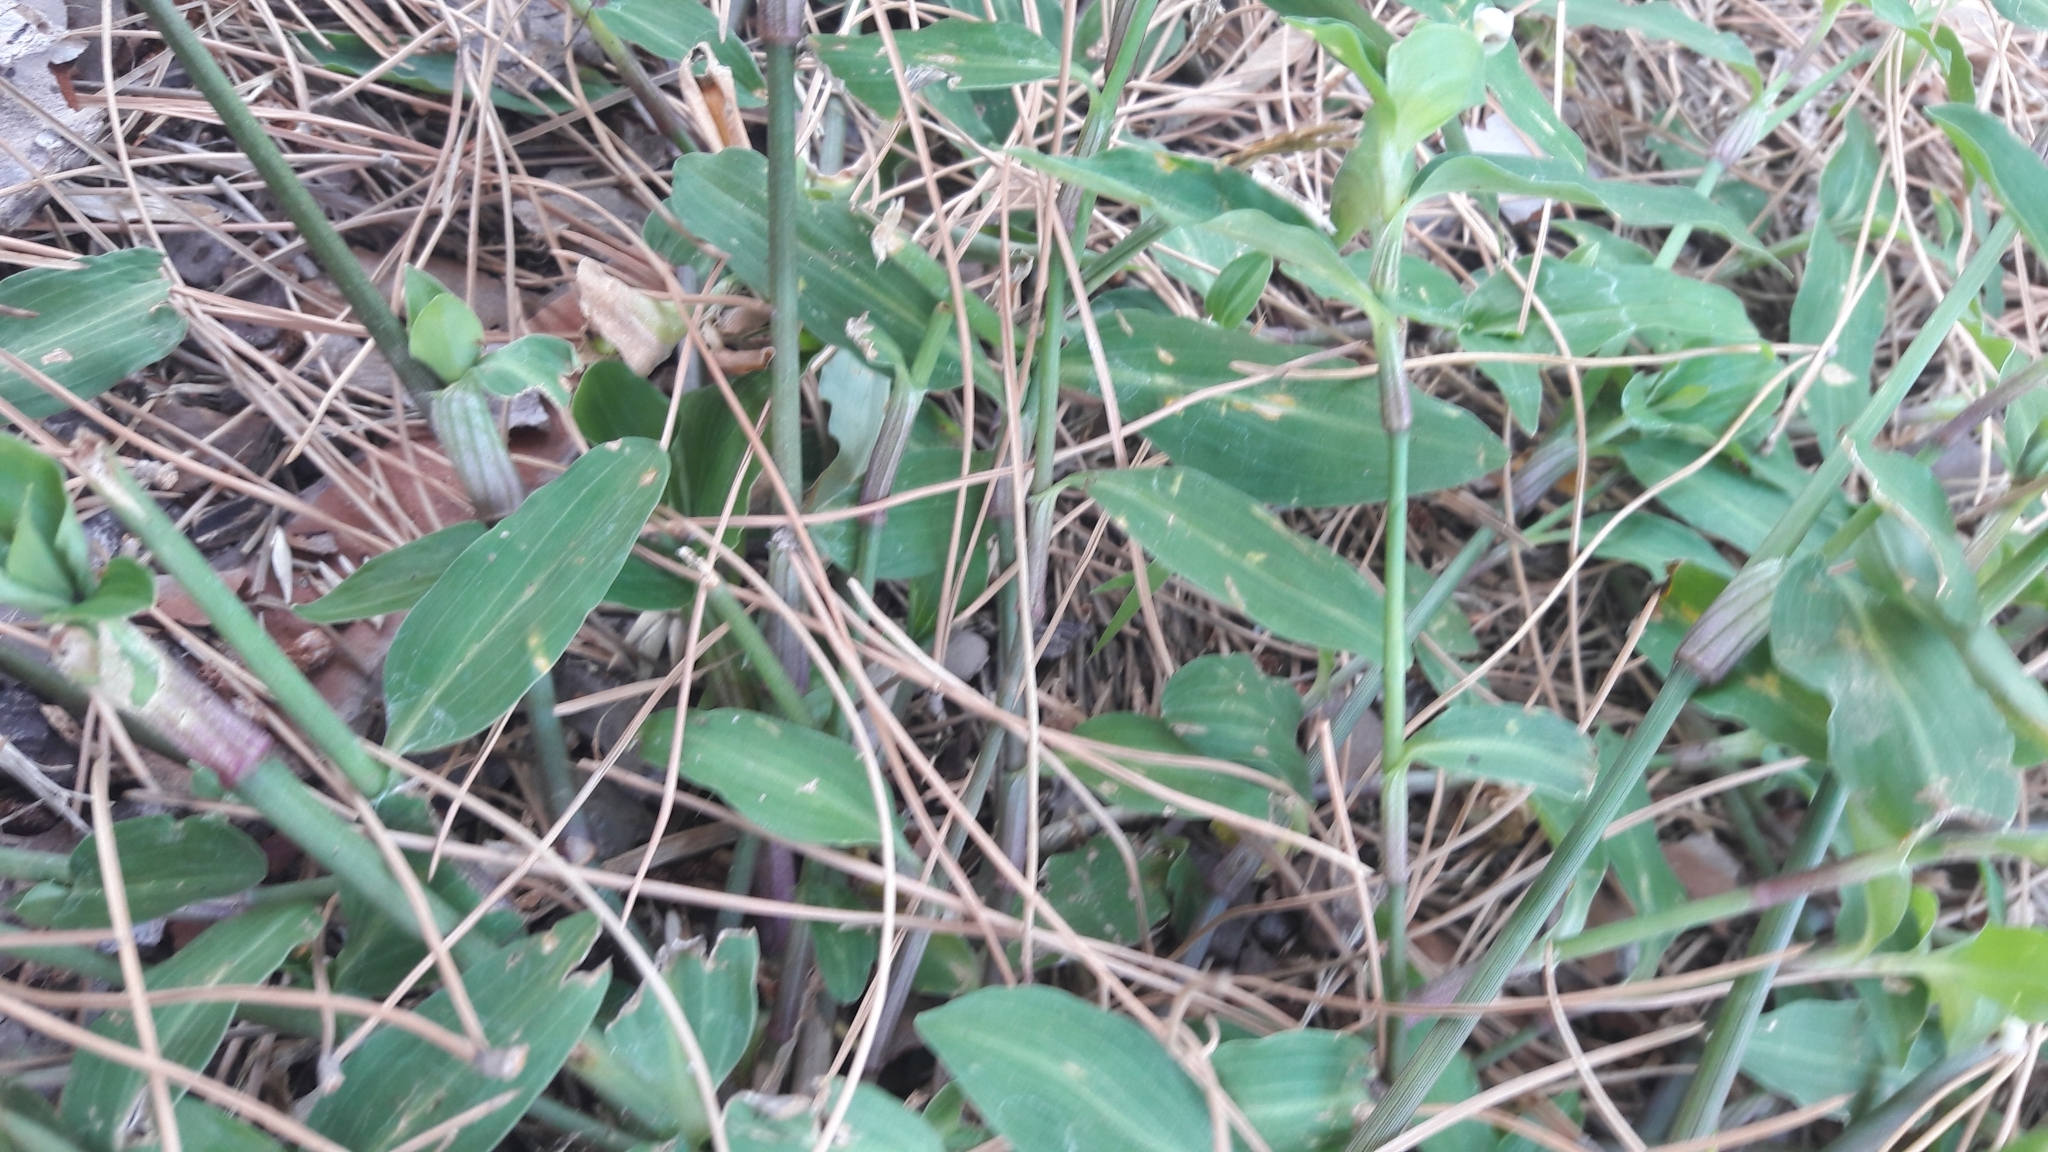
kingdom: Plantae
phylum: Tracheophyta
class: Liliopsida
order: Commelinales
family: Commelinaceae
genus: Commelina
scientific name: Commelina erecta
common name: Blousel blommetjie
